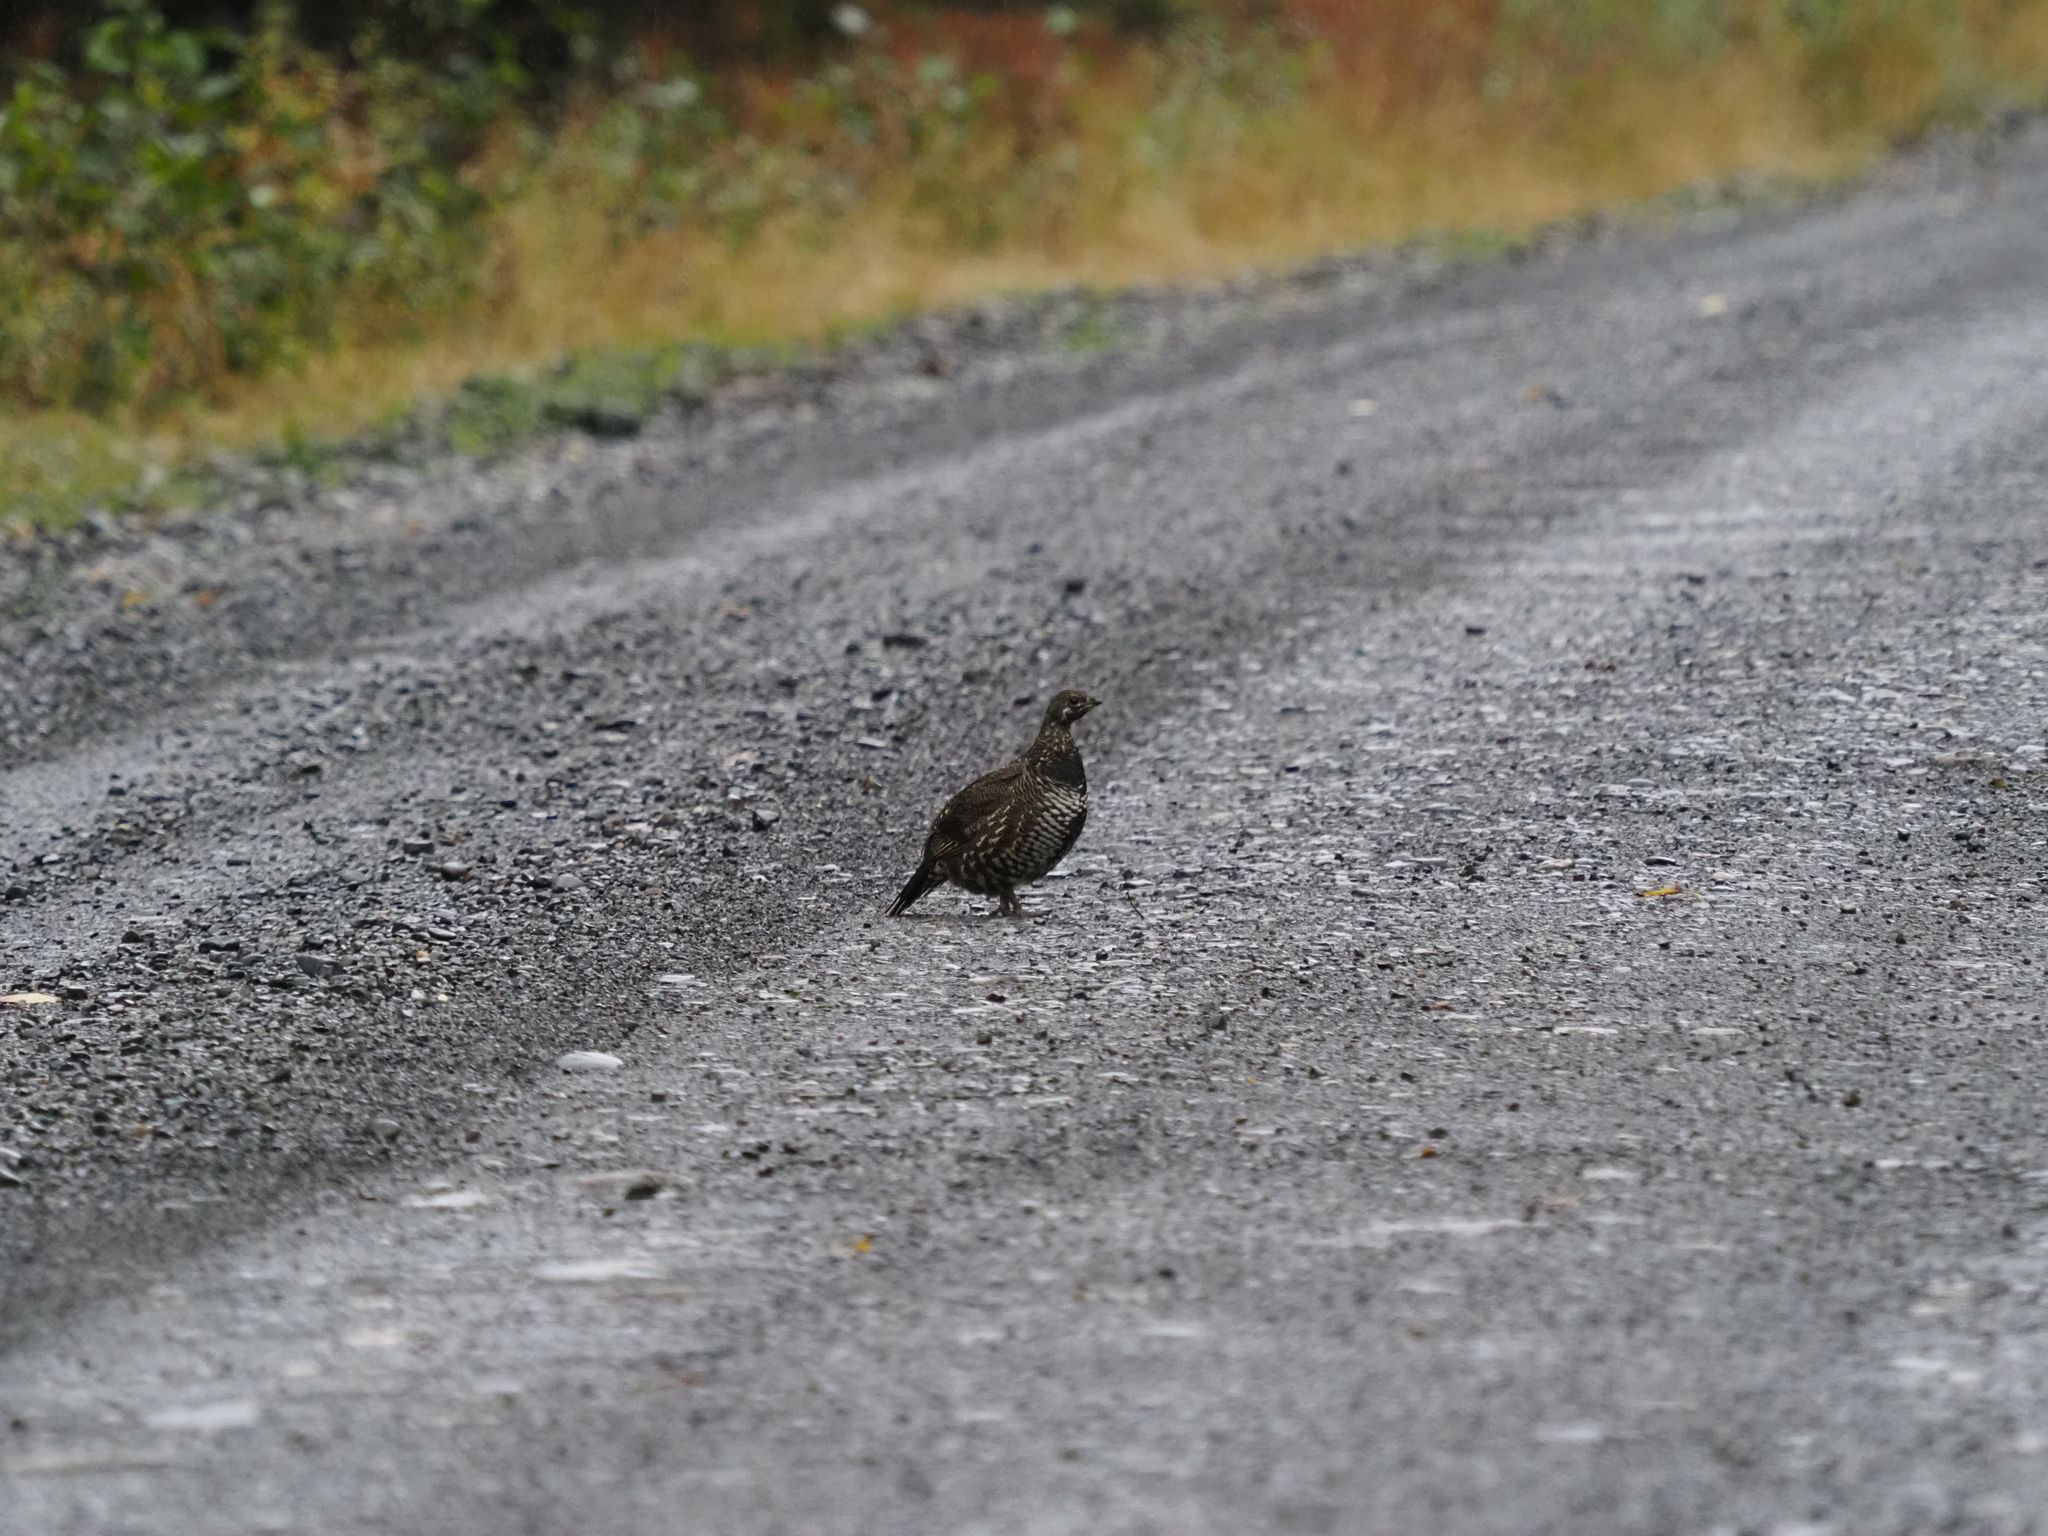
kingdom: Animalia
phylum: Chordata
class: Aves
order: Galliformes
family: Phasianidae
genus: Canachites
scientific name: Canachites canadensis
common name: Spruce grouse
